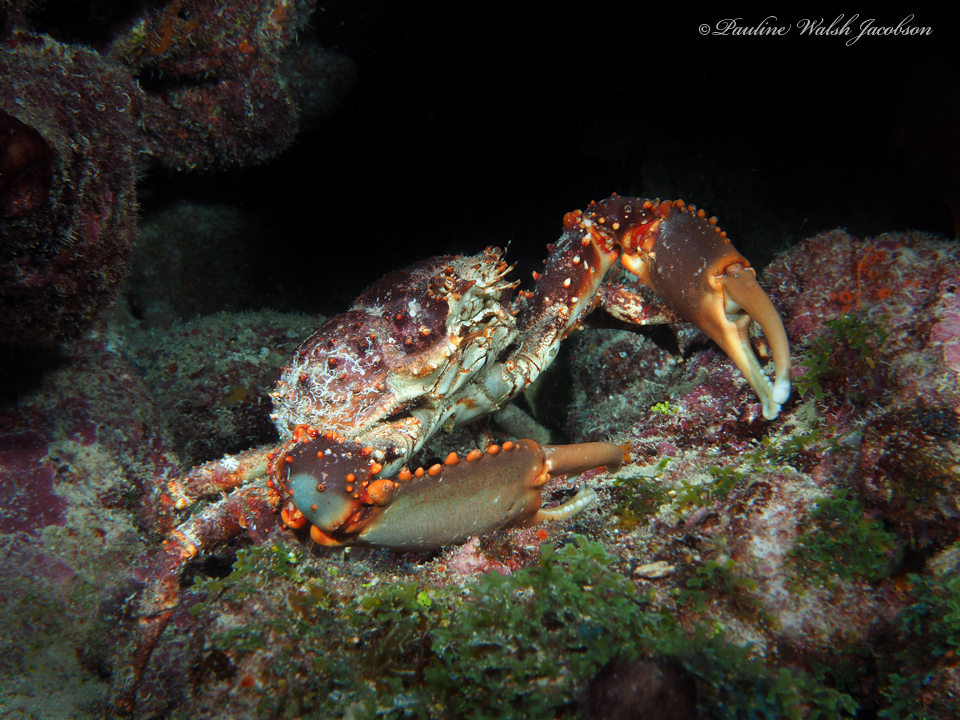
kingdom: Animalia
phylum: Arthropoda
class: Malacostraca
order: Decapoda
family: Mithracidae
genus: Maguimithrax
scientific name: Maguimithrax spinosissimus
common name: Spiny spider crab
